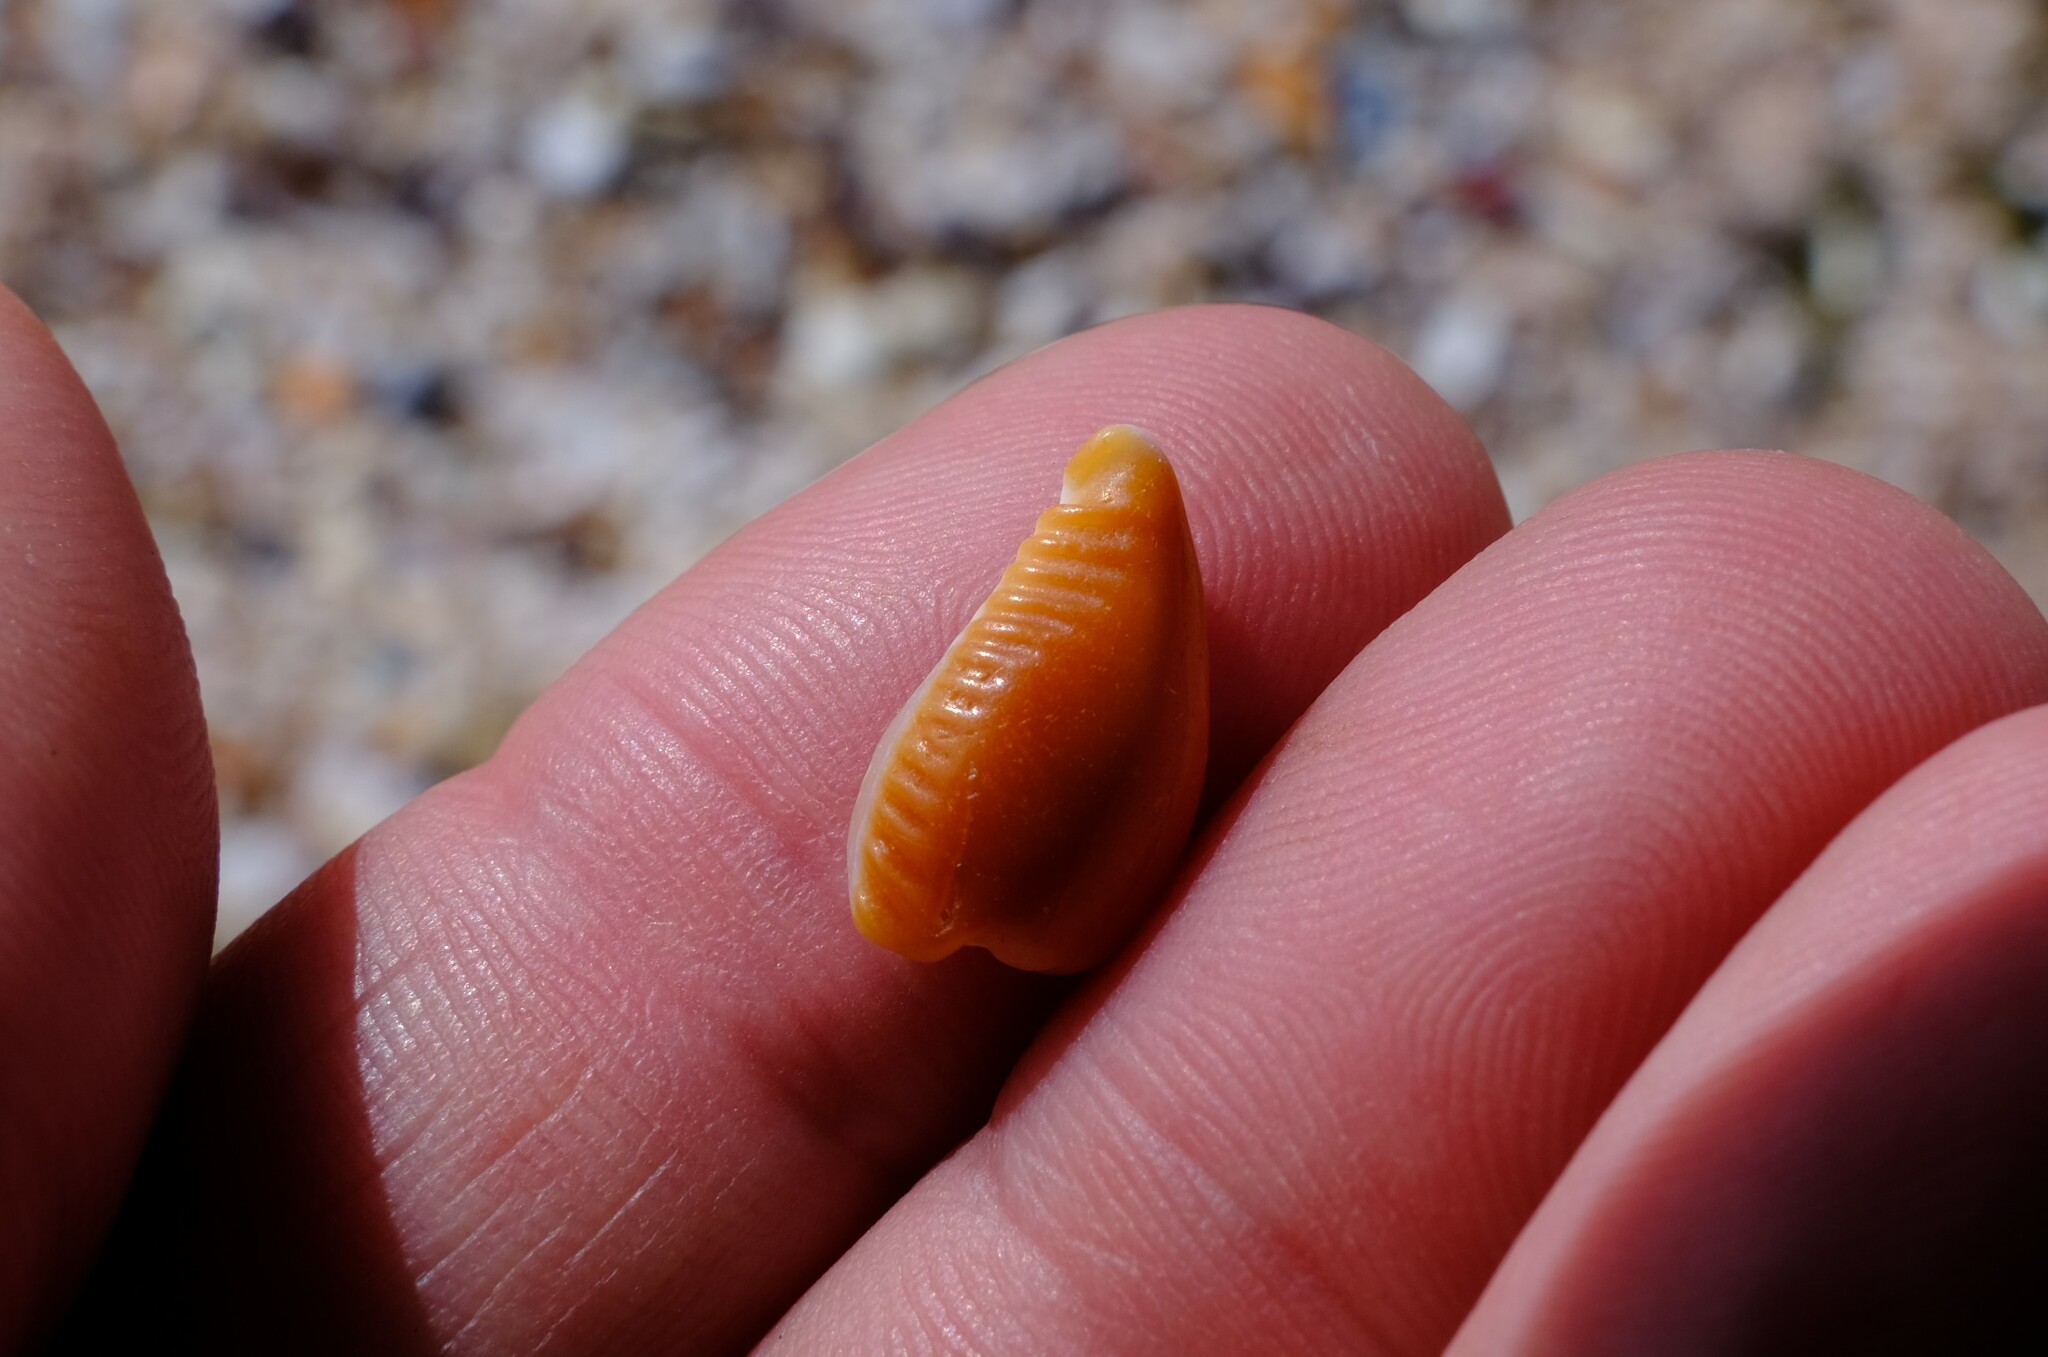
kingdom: Animalia
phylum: Mollusca
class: Gastropoda
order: Littorinimorpha
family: Cypraeidae
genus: Naria
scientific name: Naria helvola
